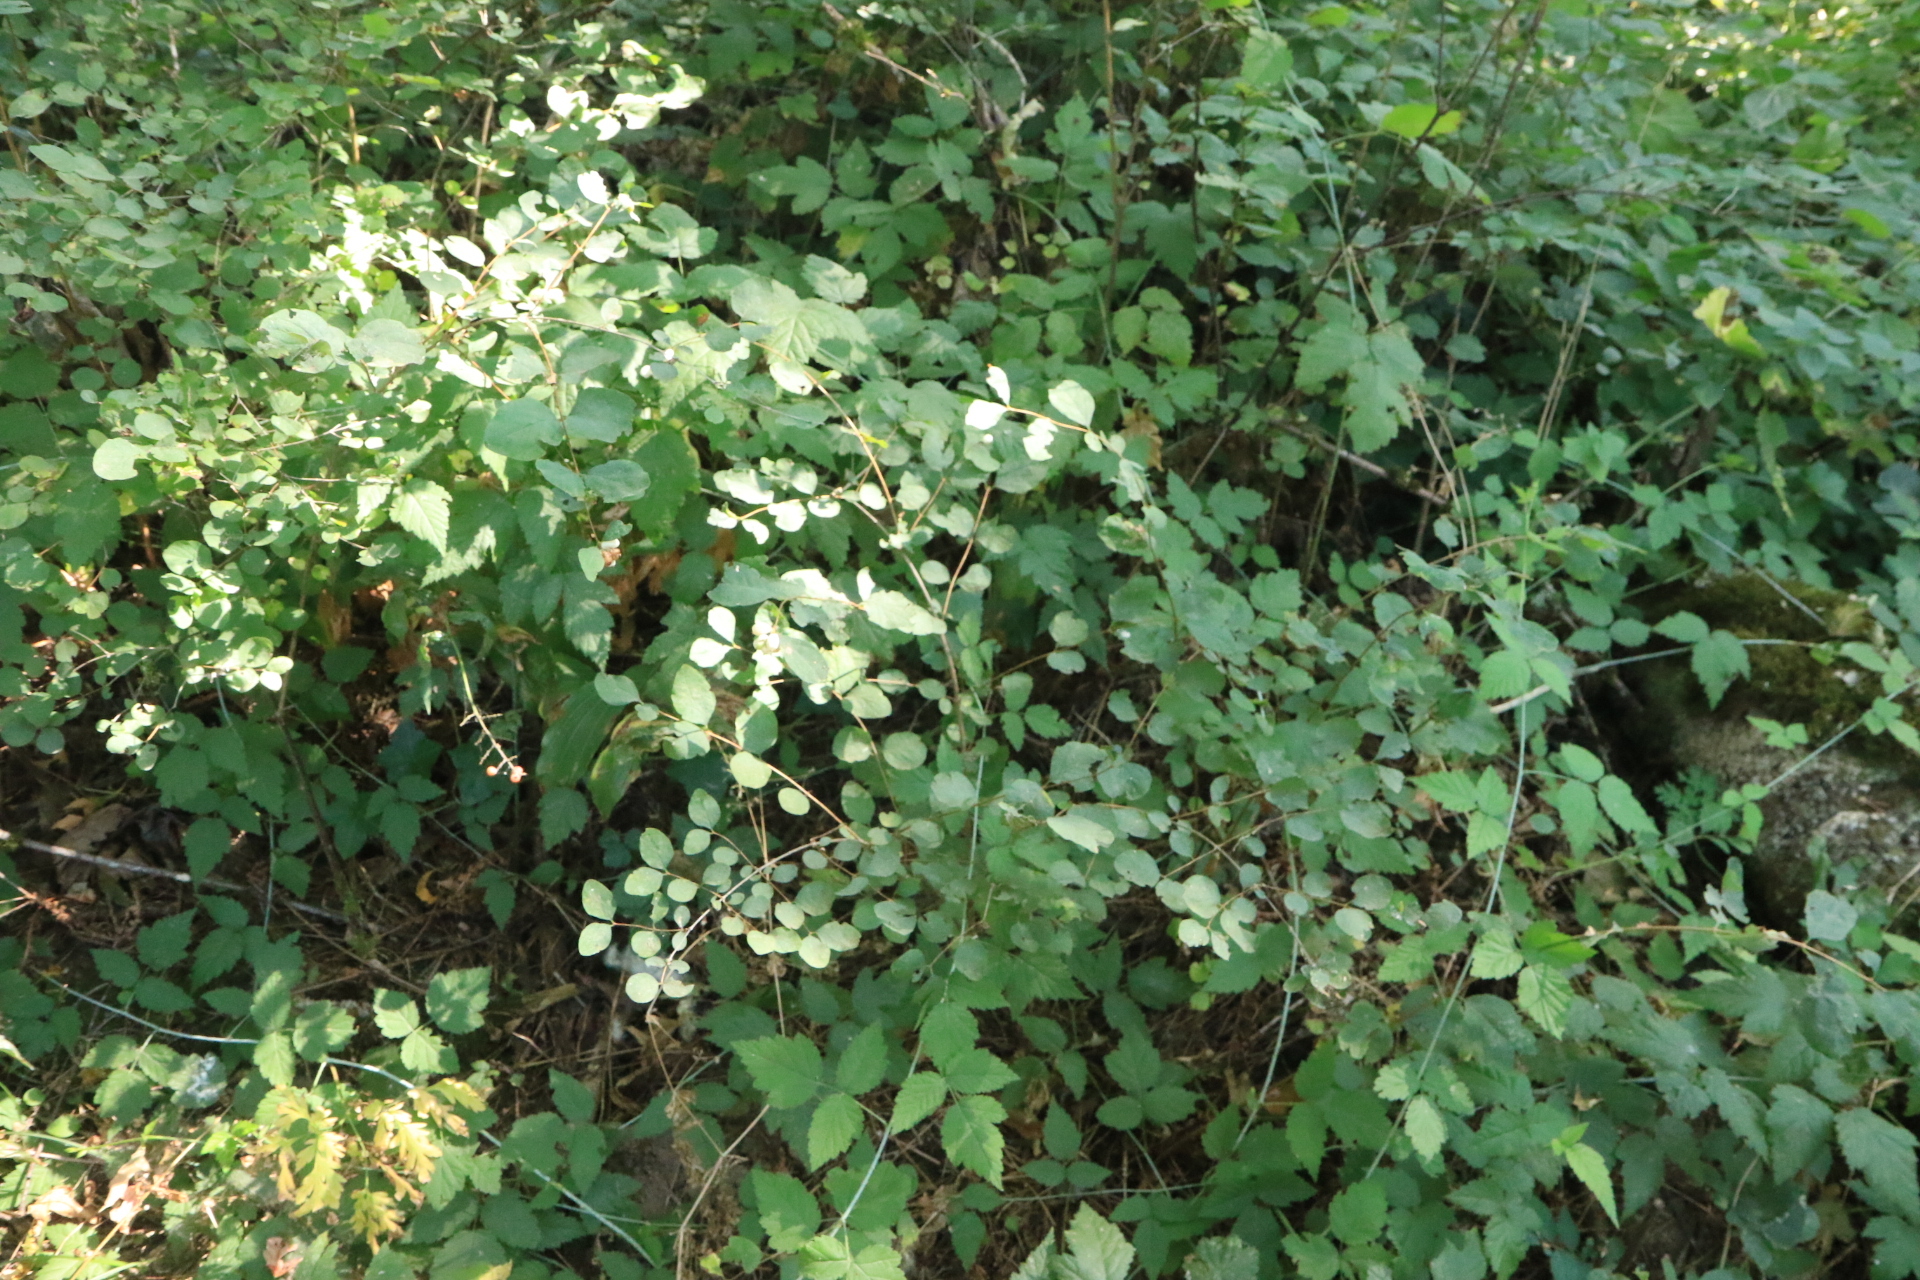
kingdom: Plantae
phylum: Tracheophyta
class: Magnoliopsida
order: Dipsacales
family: Caprifoliaceae
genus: Symphoricarpos
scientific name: Symphoricarpos albus
